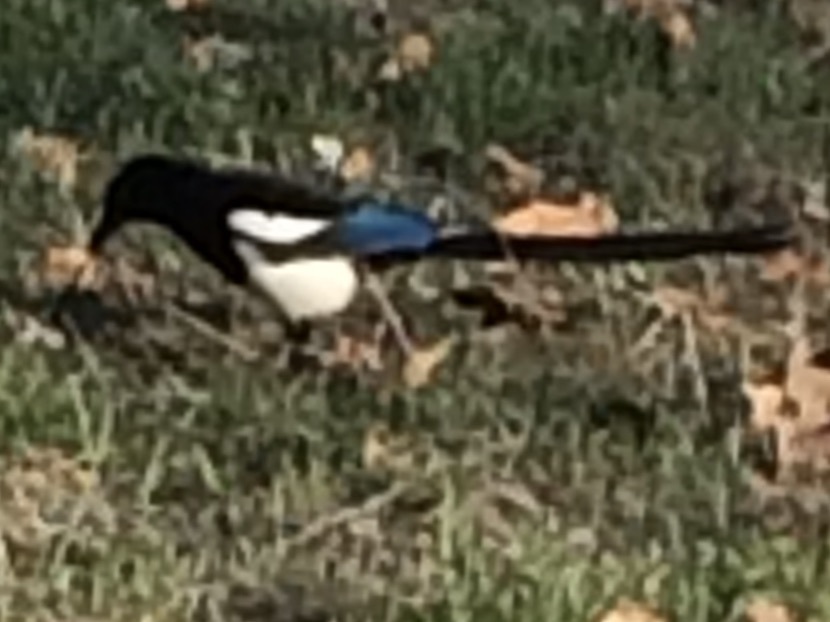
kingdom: Animalia
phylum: Chordata
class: Aves
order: Passeriformes
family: Corvidae
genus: Pica
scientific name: Pica hudsonia
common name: Black-billed magpie
